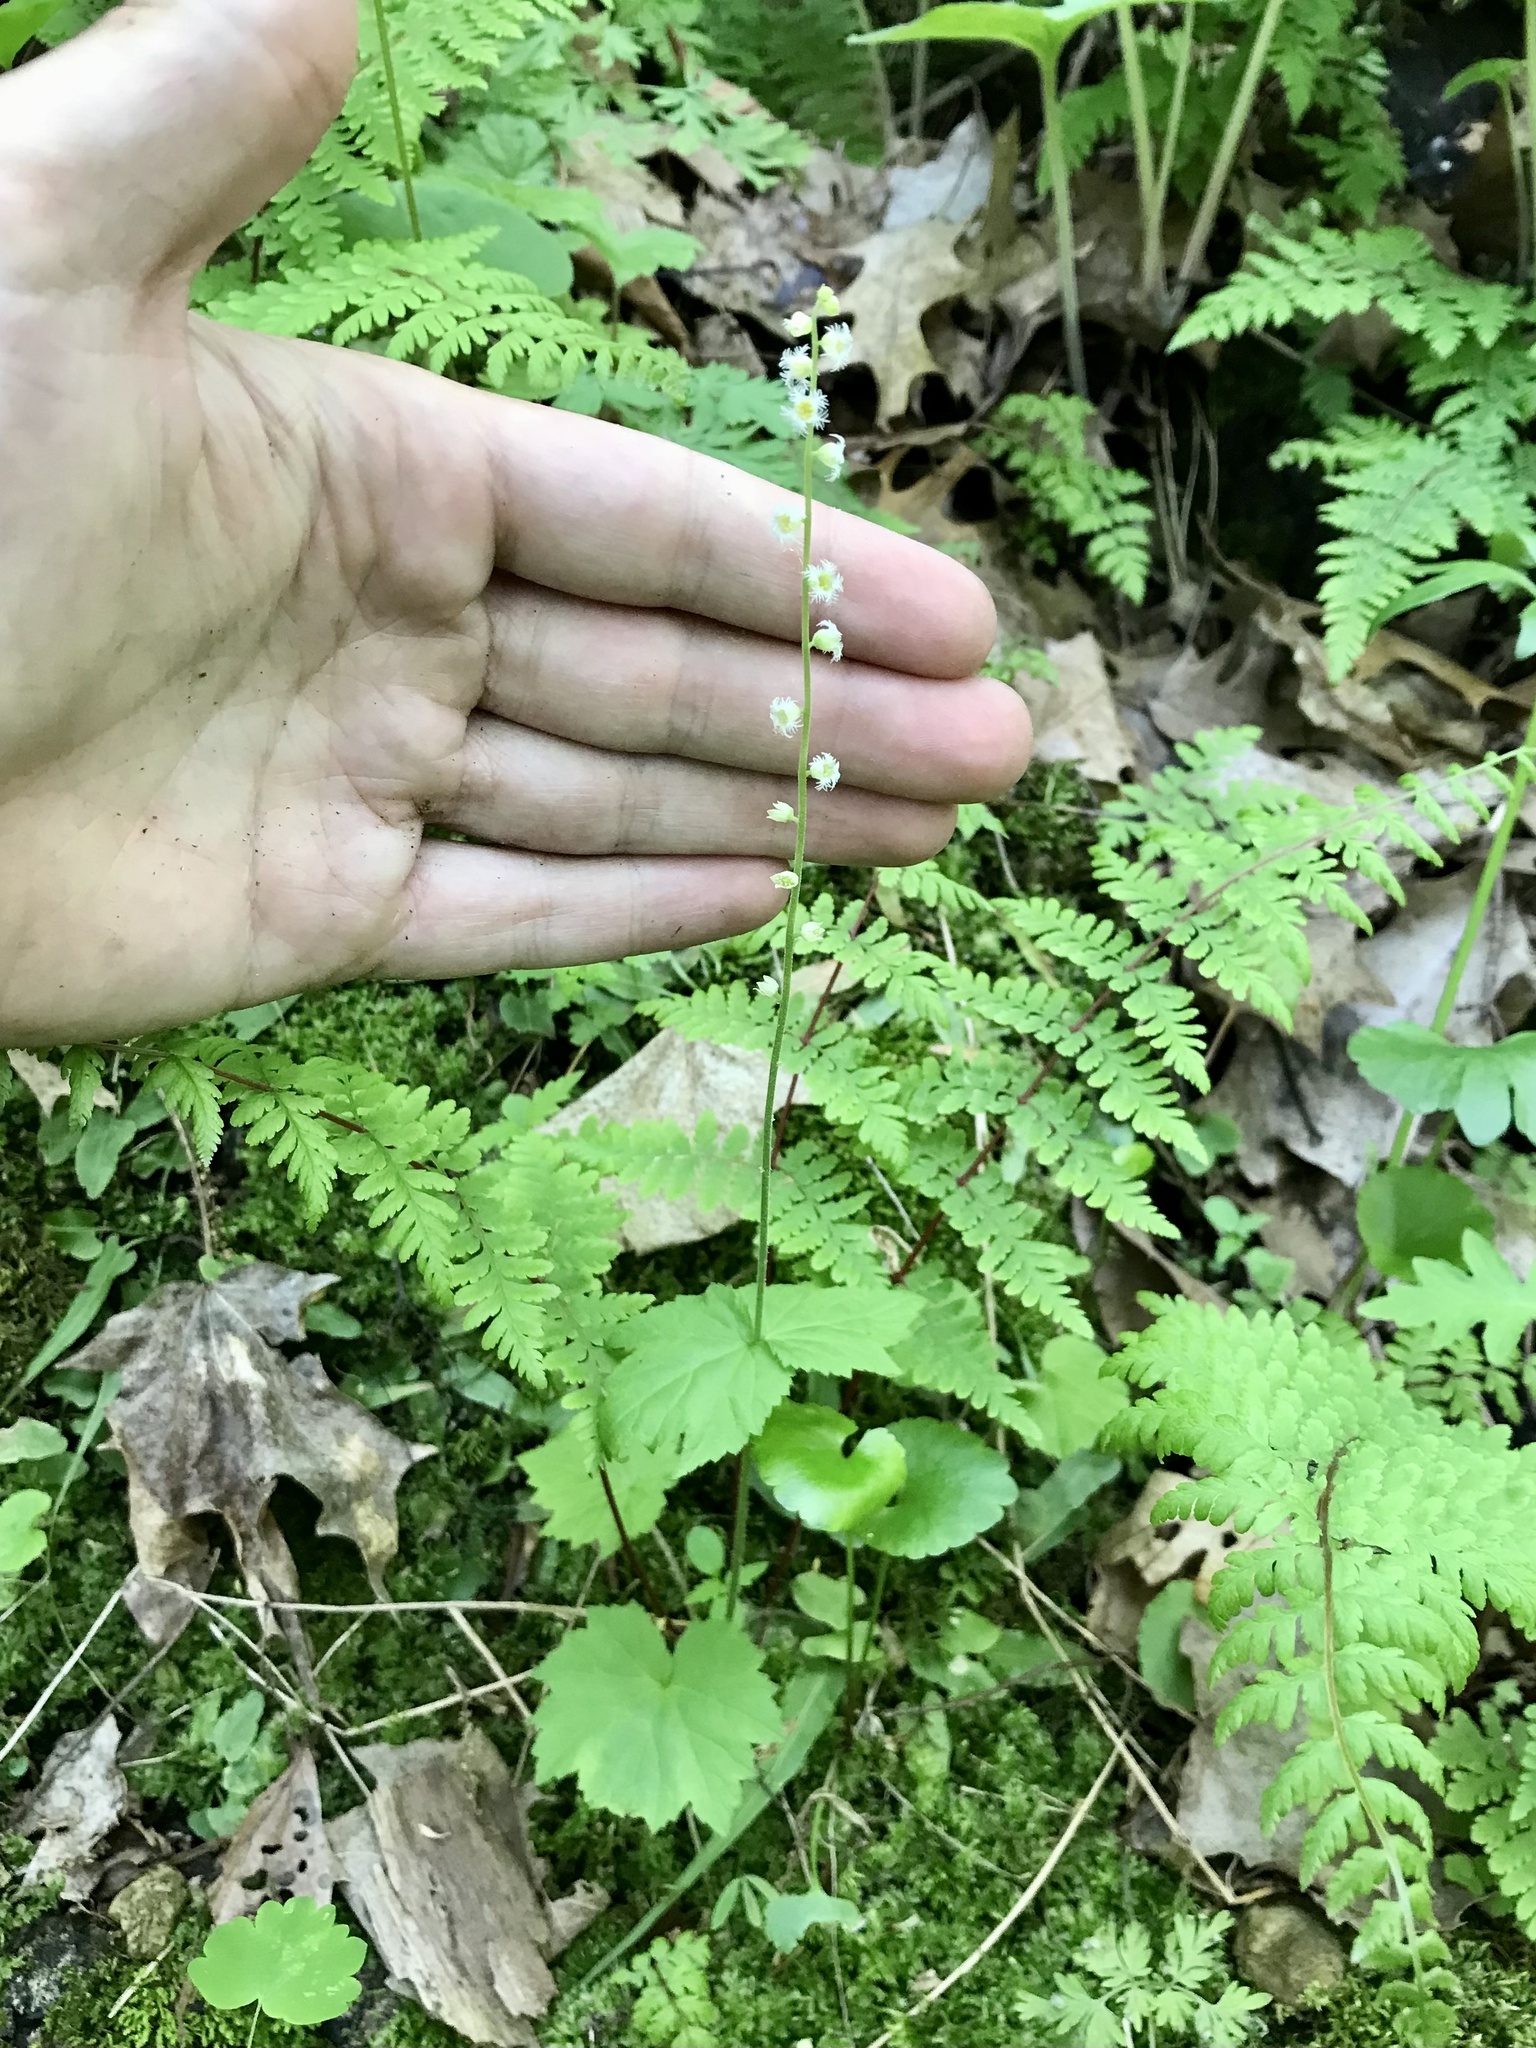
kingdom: Plantae
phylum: Tracheophyta
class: Magnoliopsida
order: Saxifragales
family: Saxifragaceae
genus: Mitella
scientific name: Mitella diphylla
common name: Coolwort
